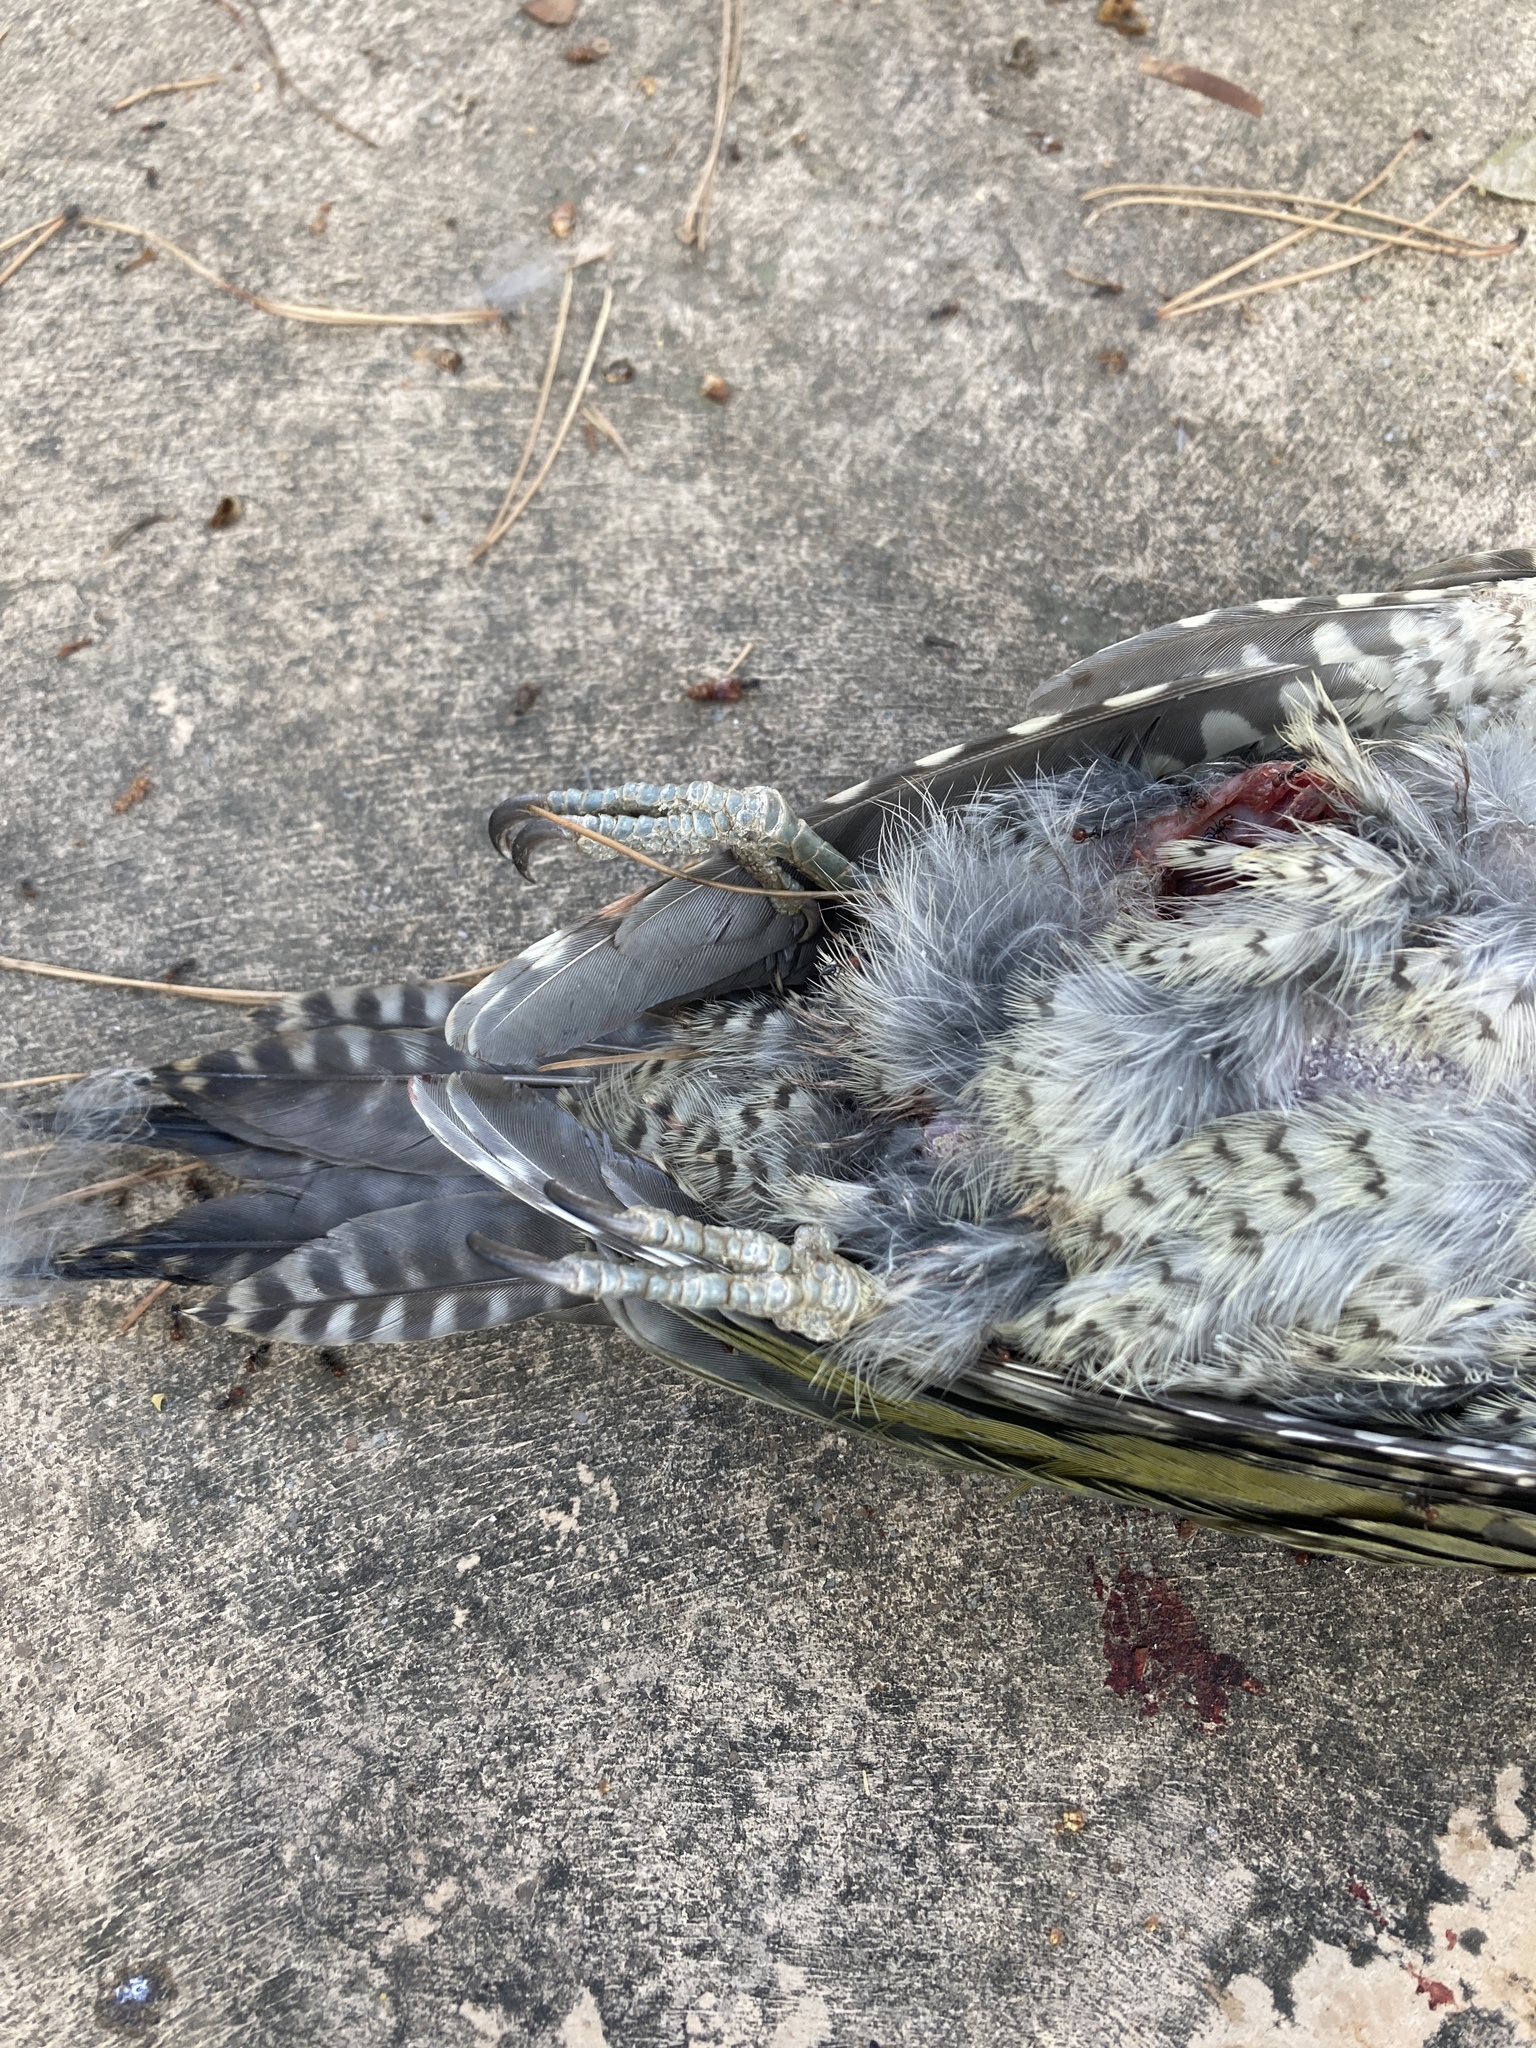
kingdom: Animalia
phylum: Chordata
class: Aves
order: Piciformes
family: Picidae
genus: Picus
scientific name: Picus sharpei
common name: Iberian green woodpecker
